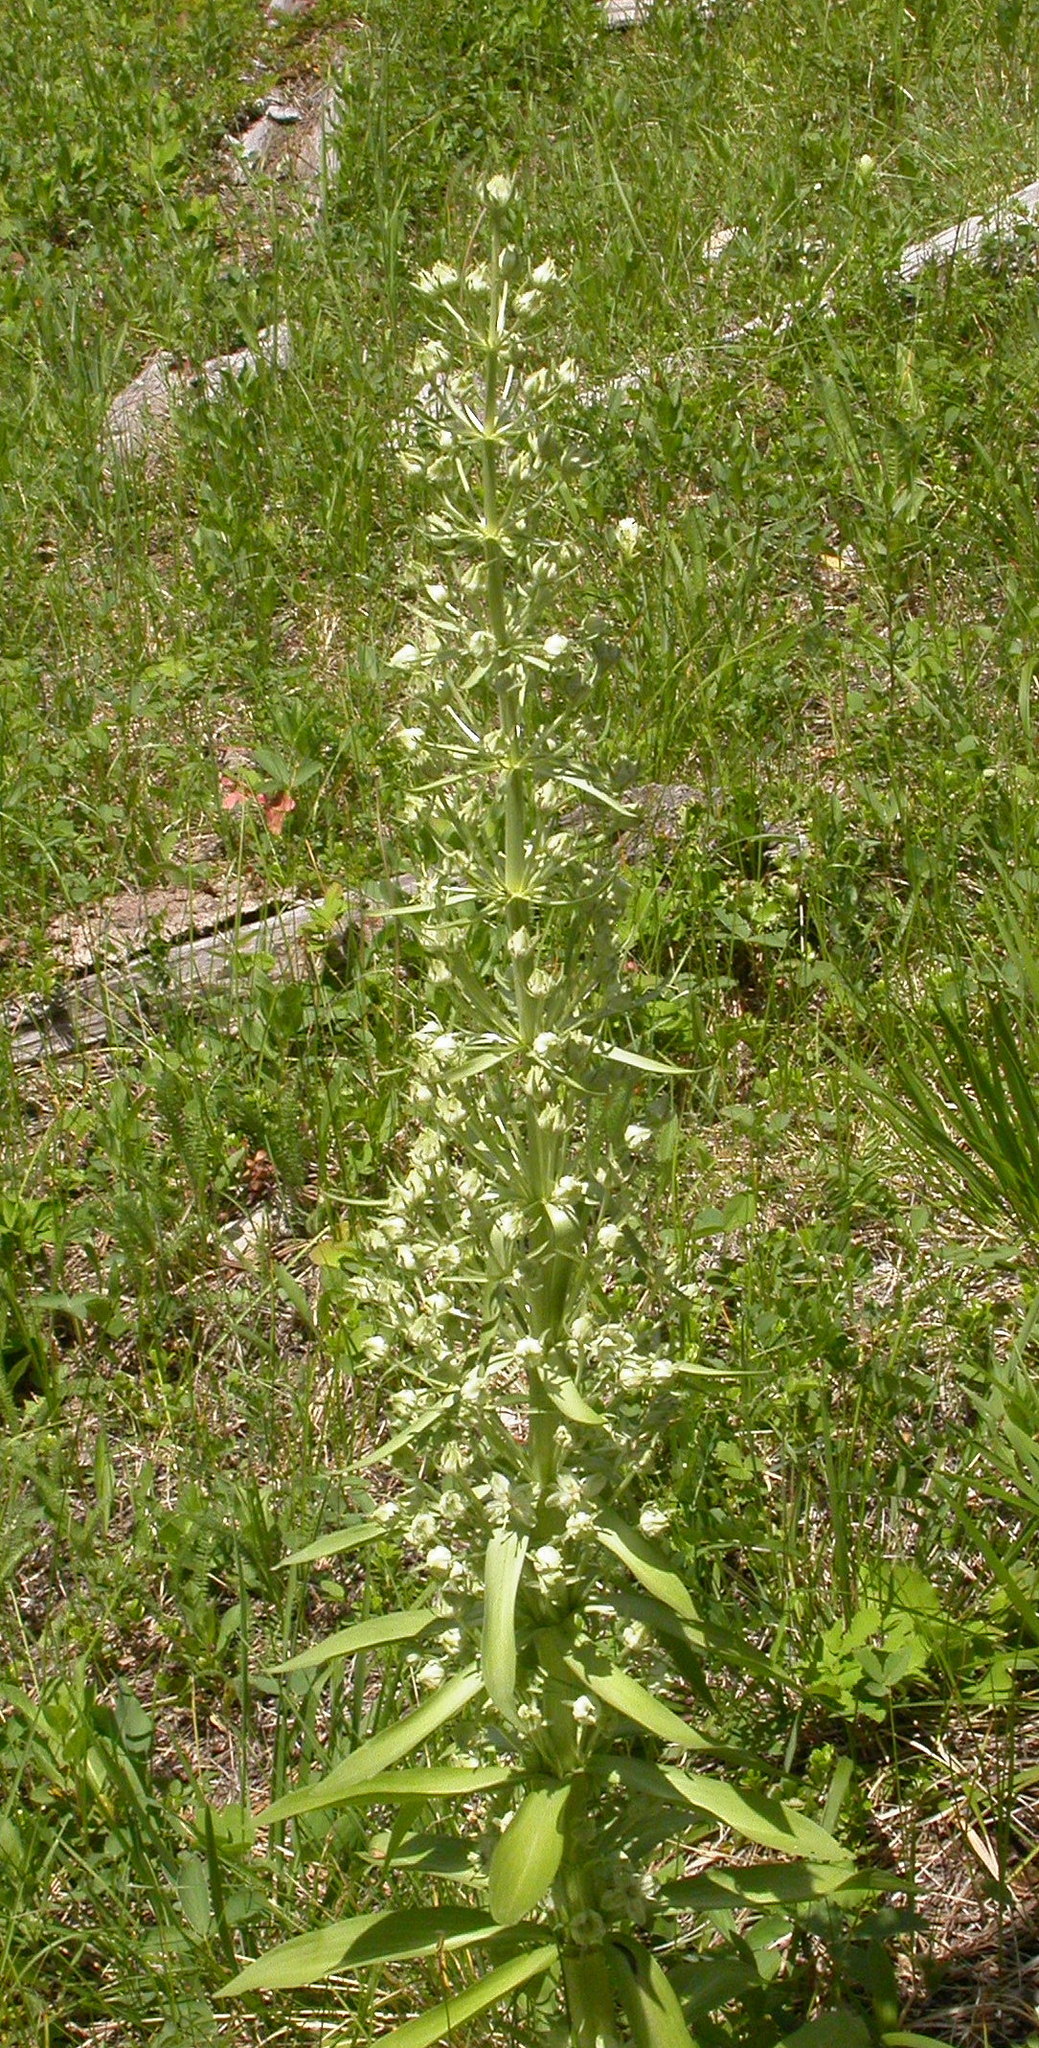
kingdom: Plantae
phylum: Tracheophyta
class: Magnoliopsida
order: Gentianales
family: Gentianaceae
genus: Frasera
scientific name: Frasera speciosa
